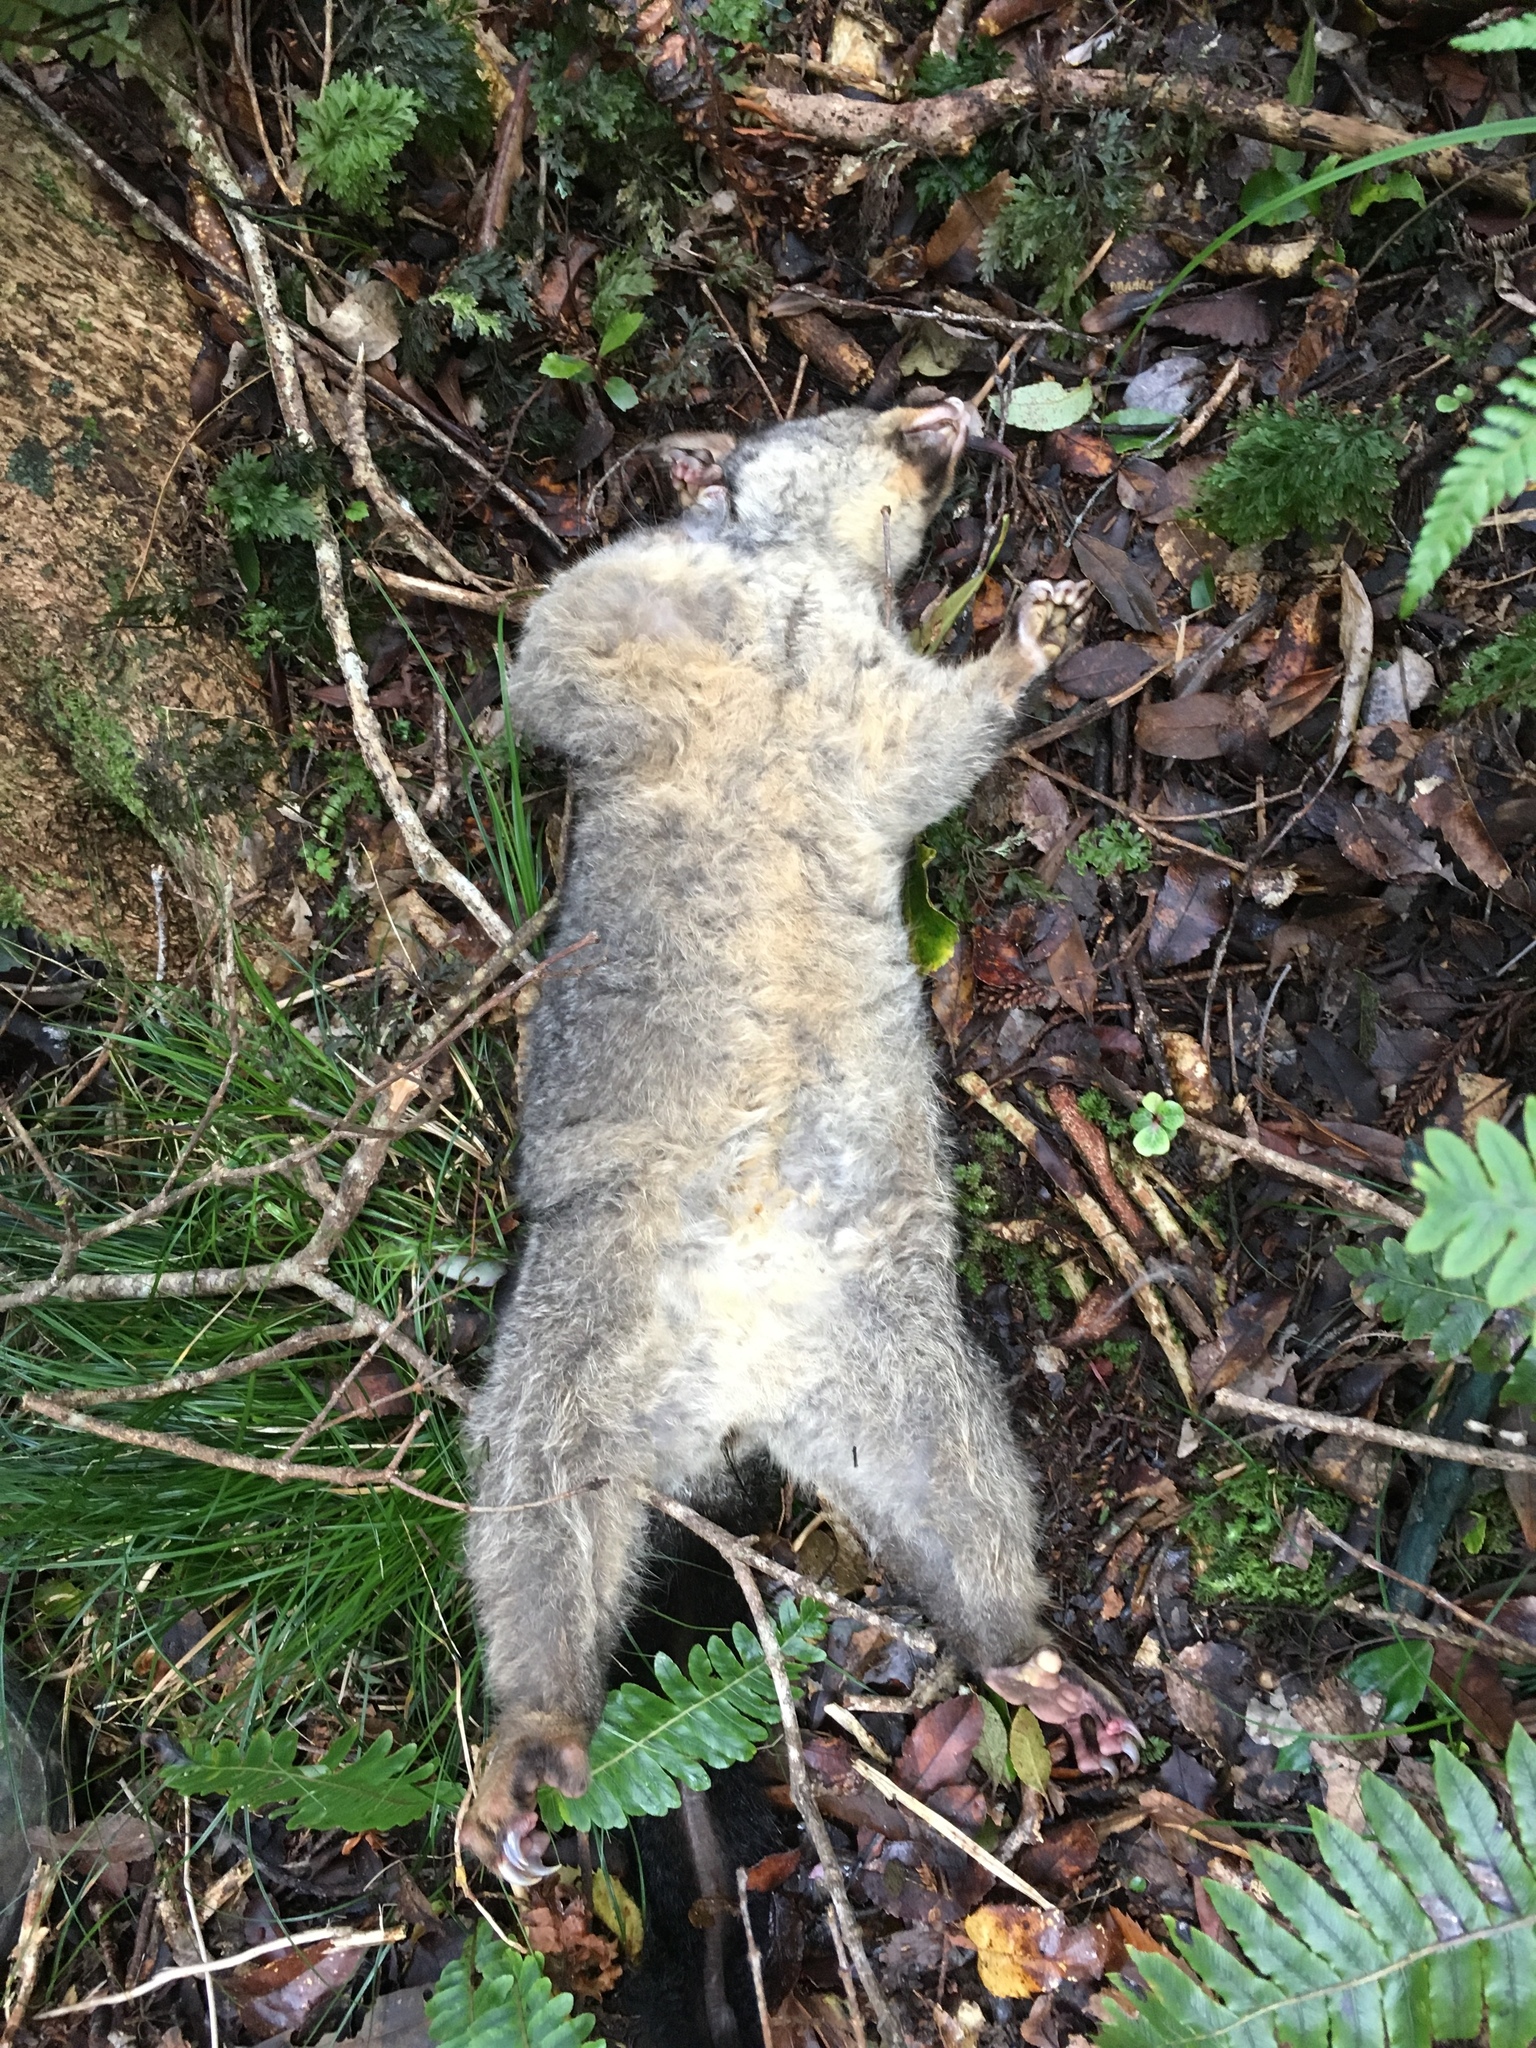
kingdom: Animalia
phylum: Chordata
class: Mammalia
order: Diprotodontia
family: Phalangeridae
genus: Trichosurus
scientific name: Trichosurus vulpecula
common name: Common brushtail
